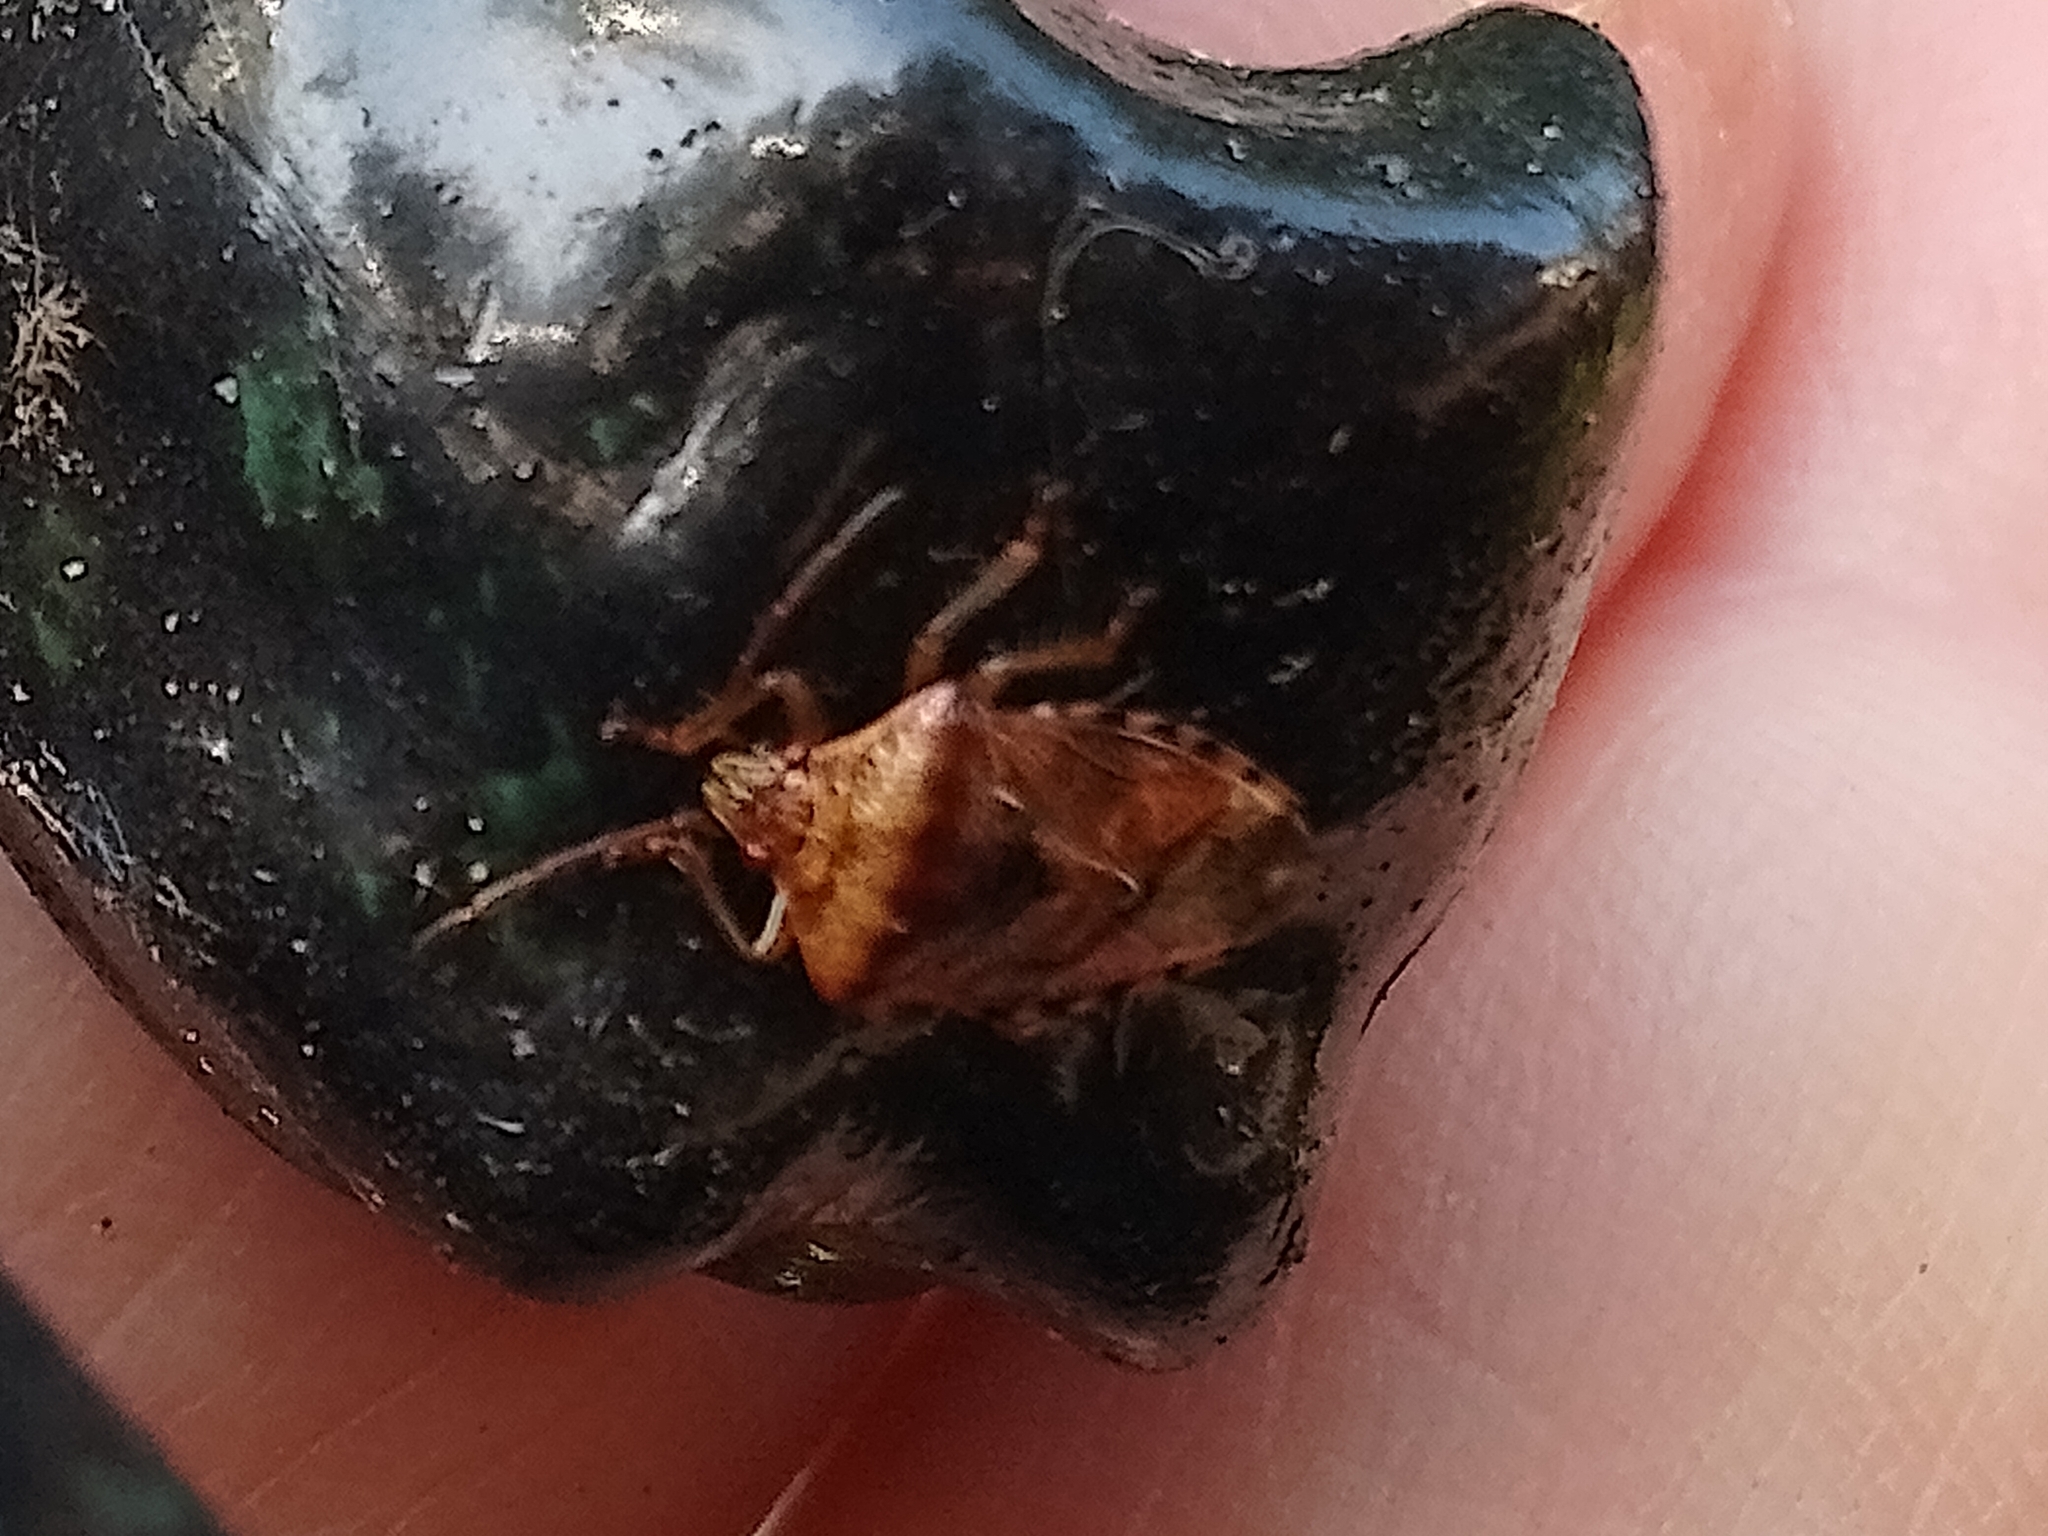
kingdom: Animalia
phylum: Arthropoda
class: Insecta
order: Hemiptera
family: Acanthosomatidae
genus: Elasmucha
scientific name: Elasmucha grisea
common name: Parent bug
